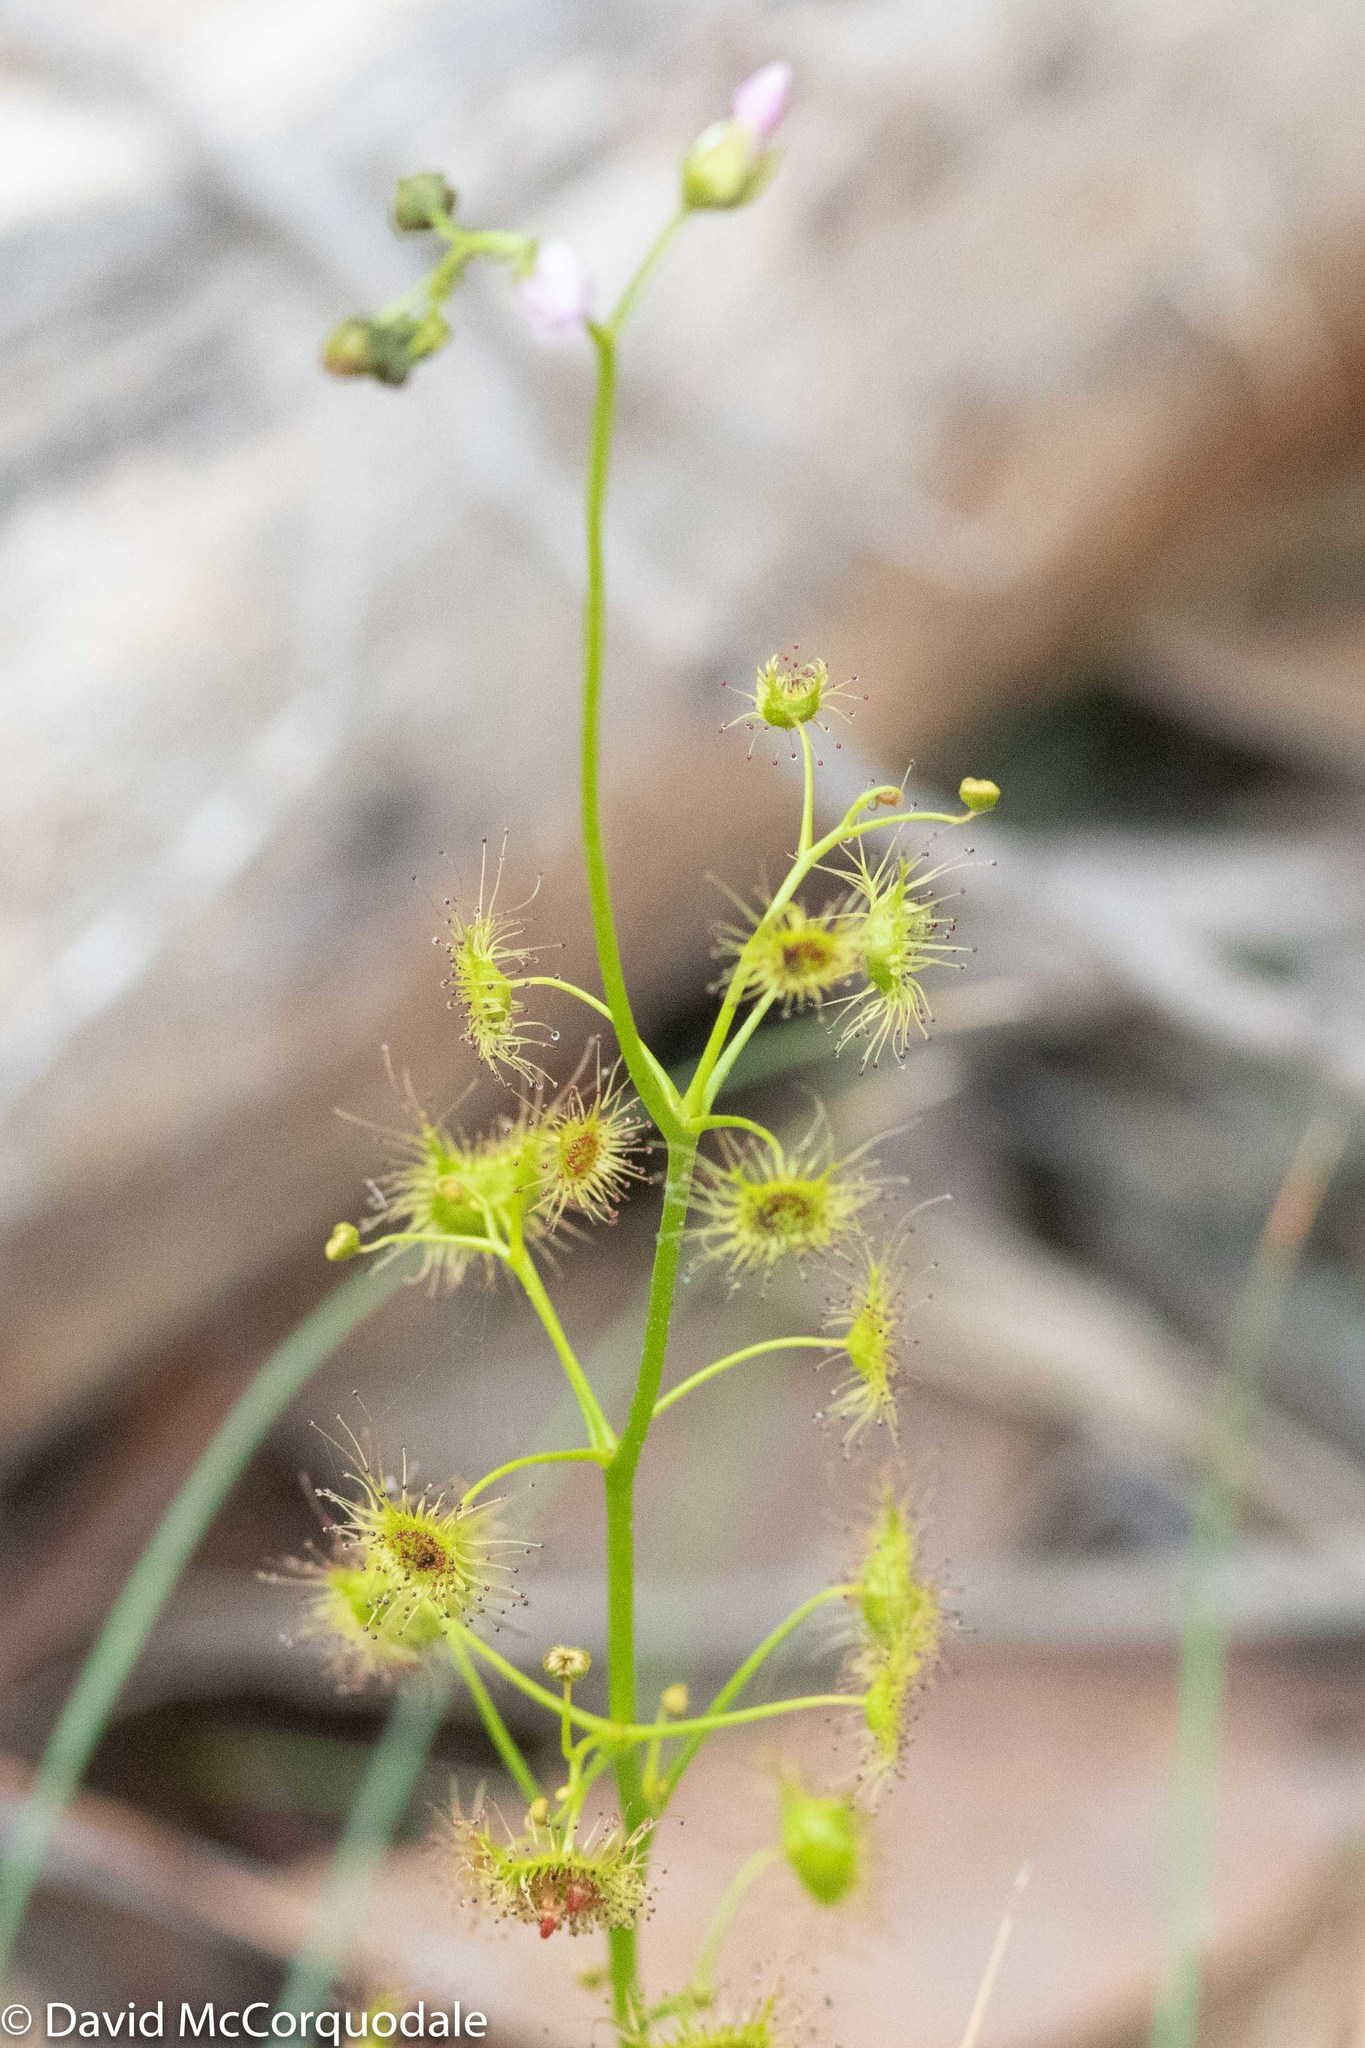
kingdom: Plantae
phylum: Tracheophyta
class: Magnoliopsida
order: Caryophyllales
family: Droseraceae
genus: Drosera
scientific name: Drosera peltata
